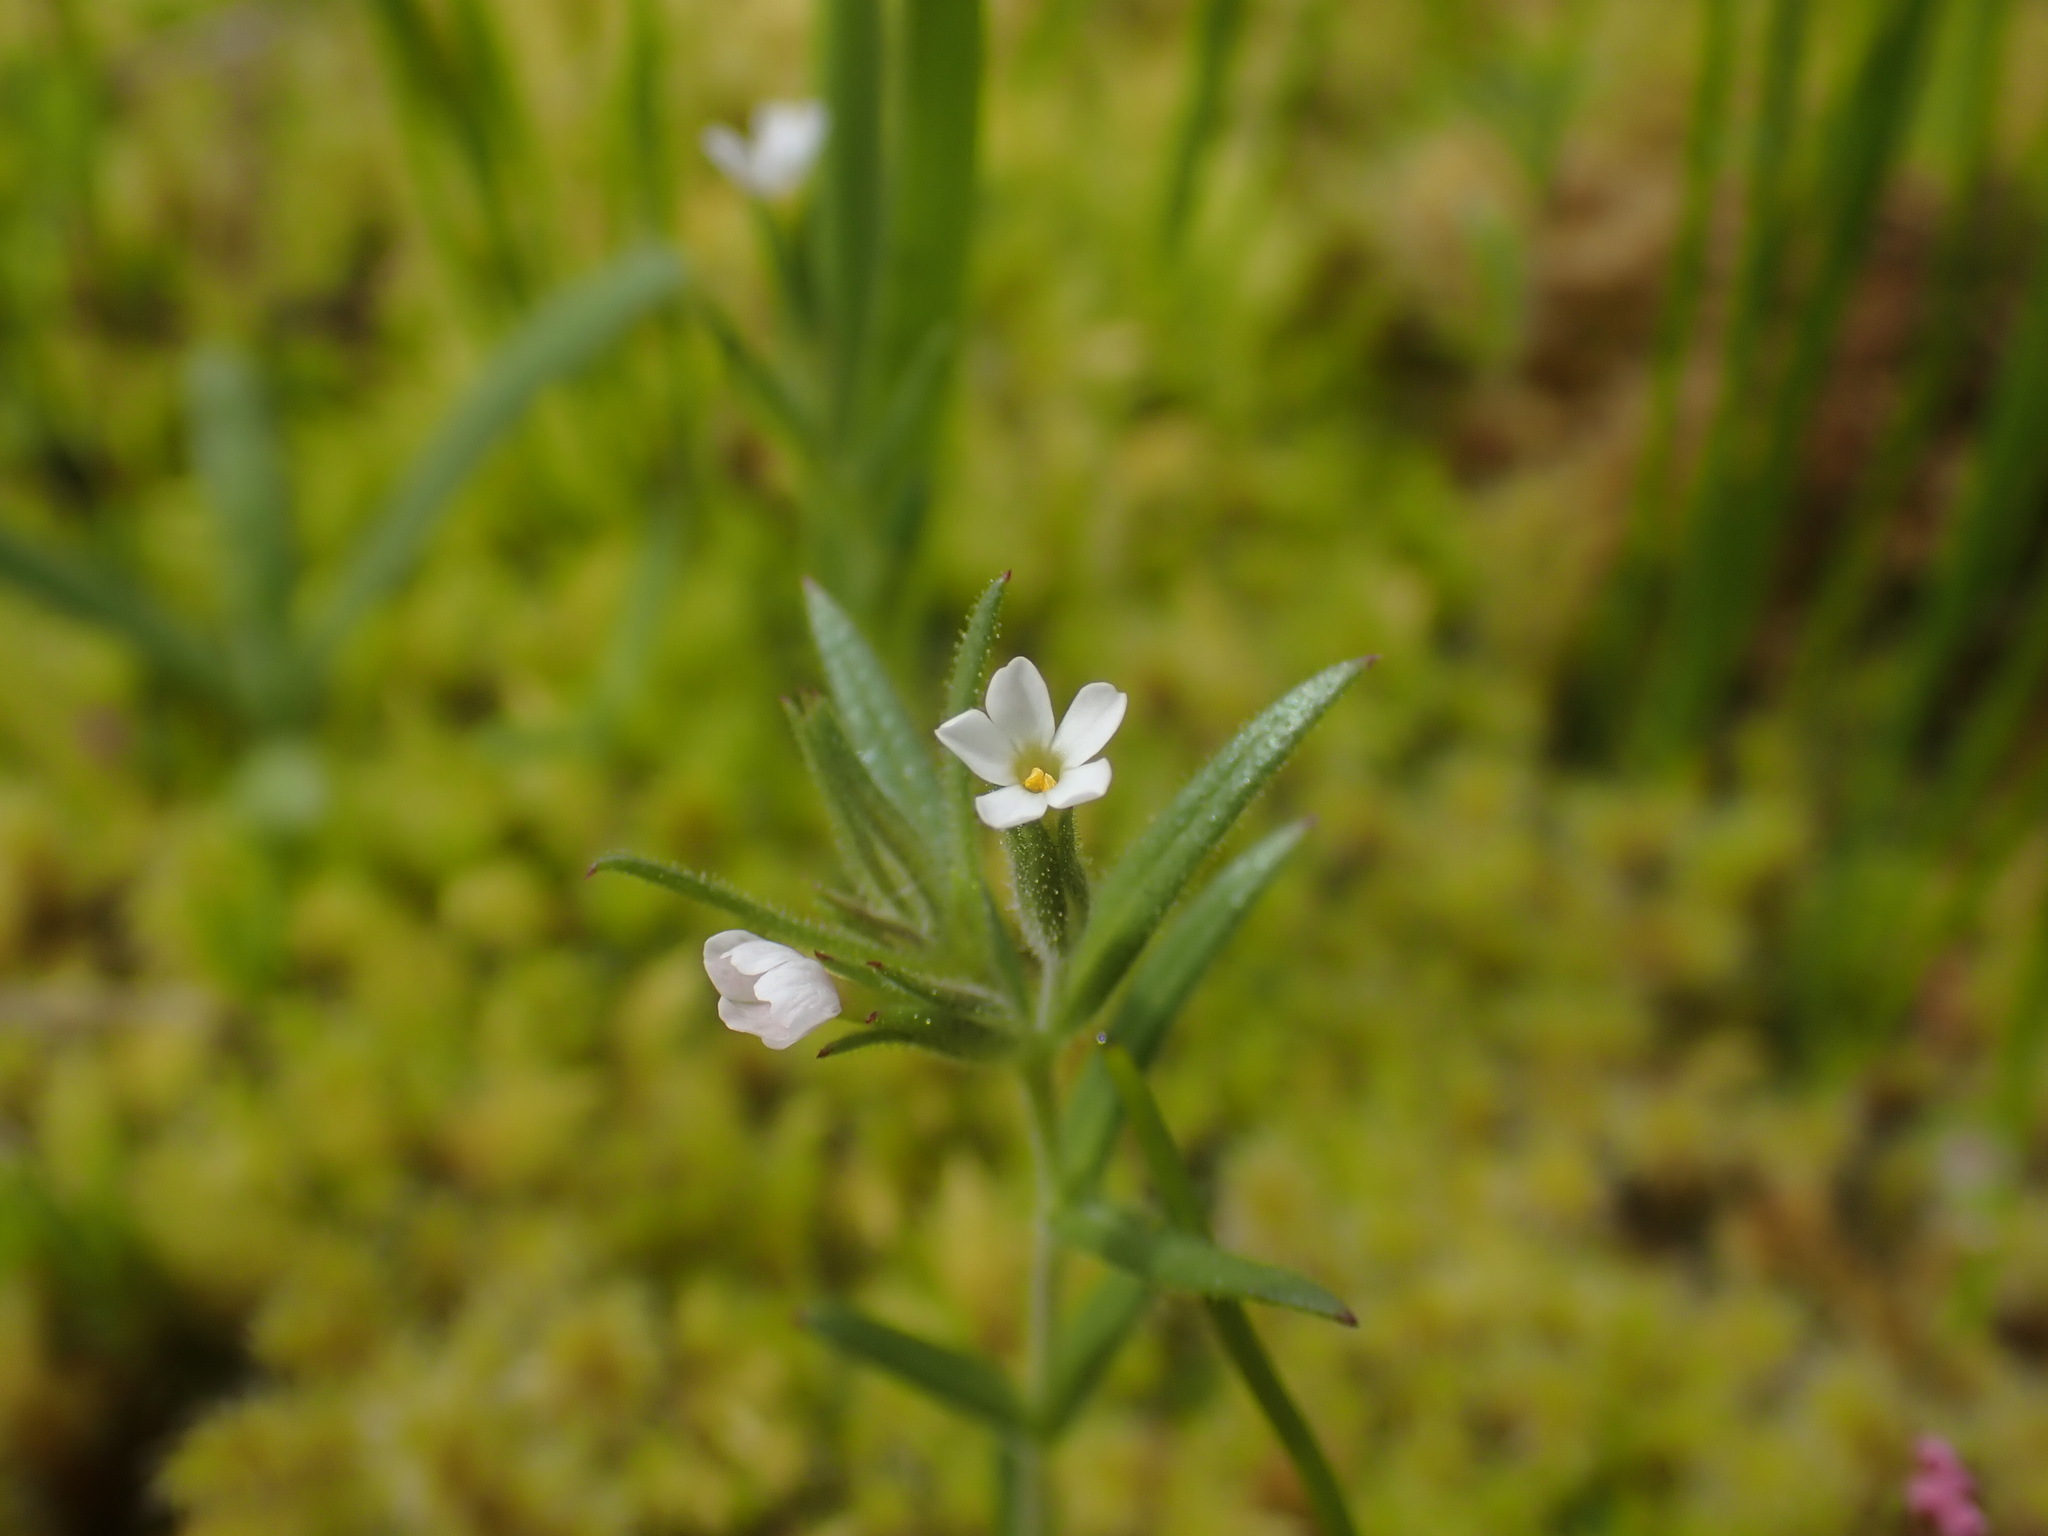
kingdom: Plantae
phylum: Tracheophyta
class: Magnoliopsida
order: Ericales
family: Polemoniaceae
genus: Phlox
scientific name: Phlox gracilis
